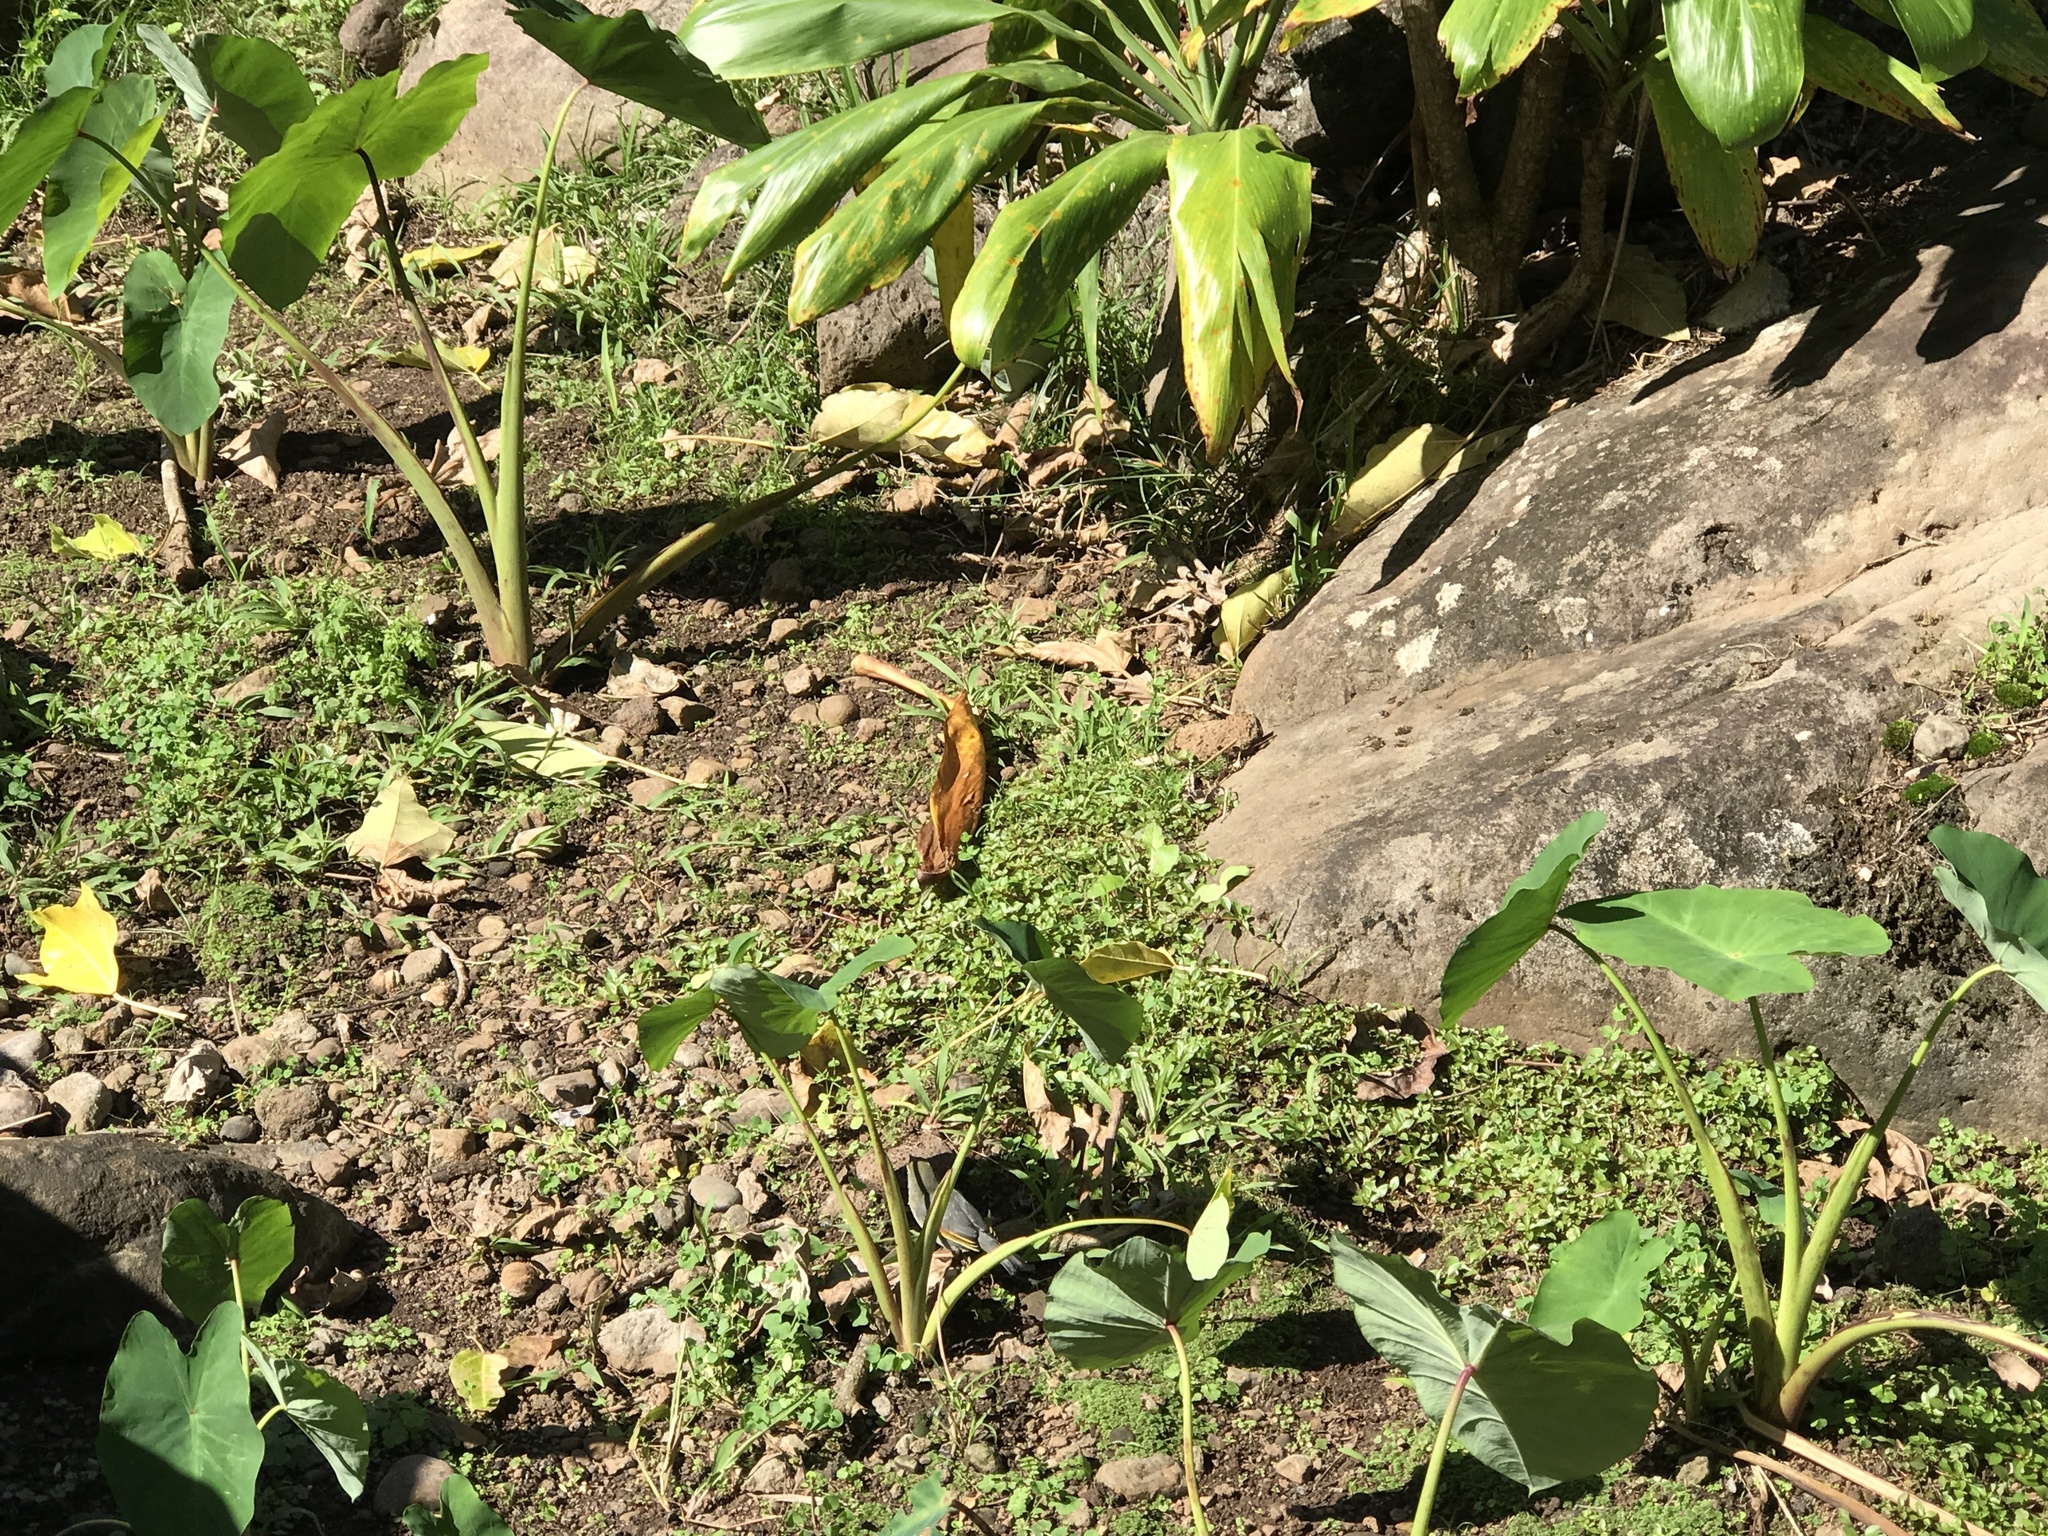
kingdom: Animalia
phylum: Chordata
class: Aves
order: Passeriformes
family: Leiothrichidae
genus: Leiothrix
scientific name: Leiothrix lutea
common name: Red-billed leiothrix
